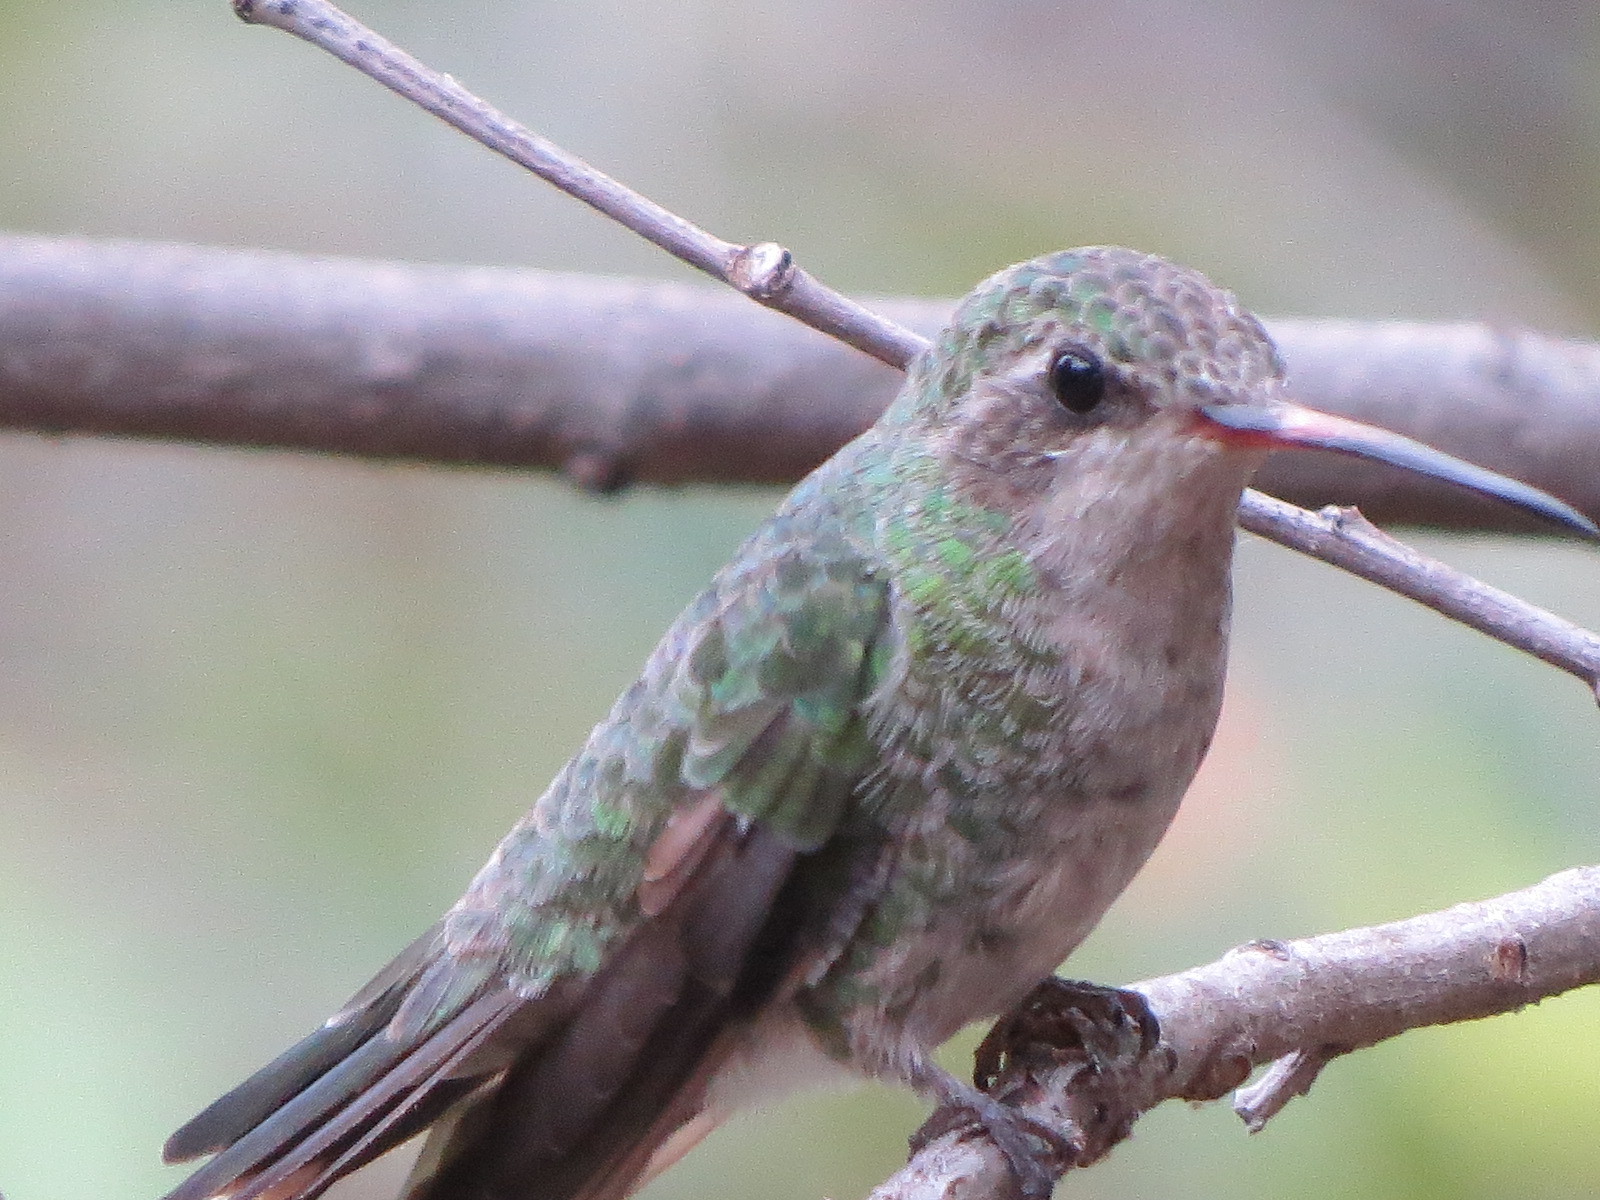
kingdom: Animalia
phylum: Chordata
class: Aves
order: Apodiformes
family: Trochilidae
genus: Cynanthus
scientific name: Cynanthus latirostris
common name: Broad-billed hummingbird
